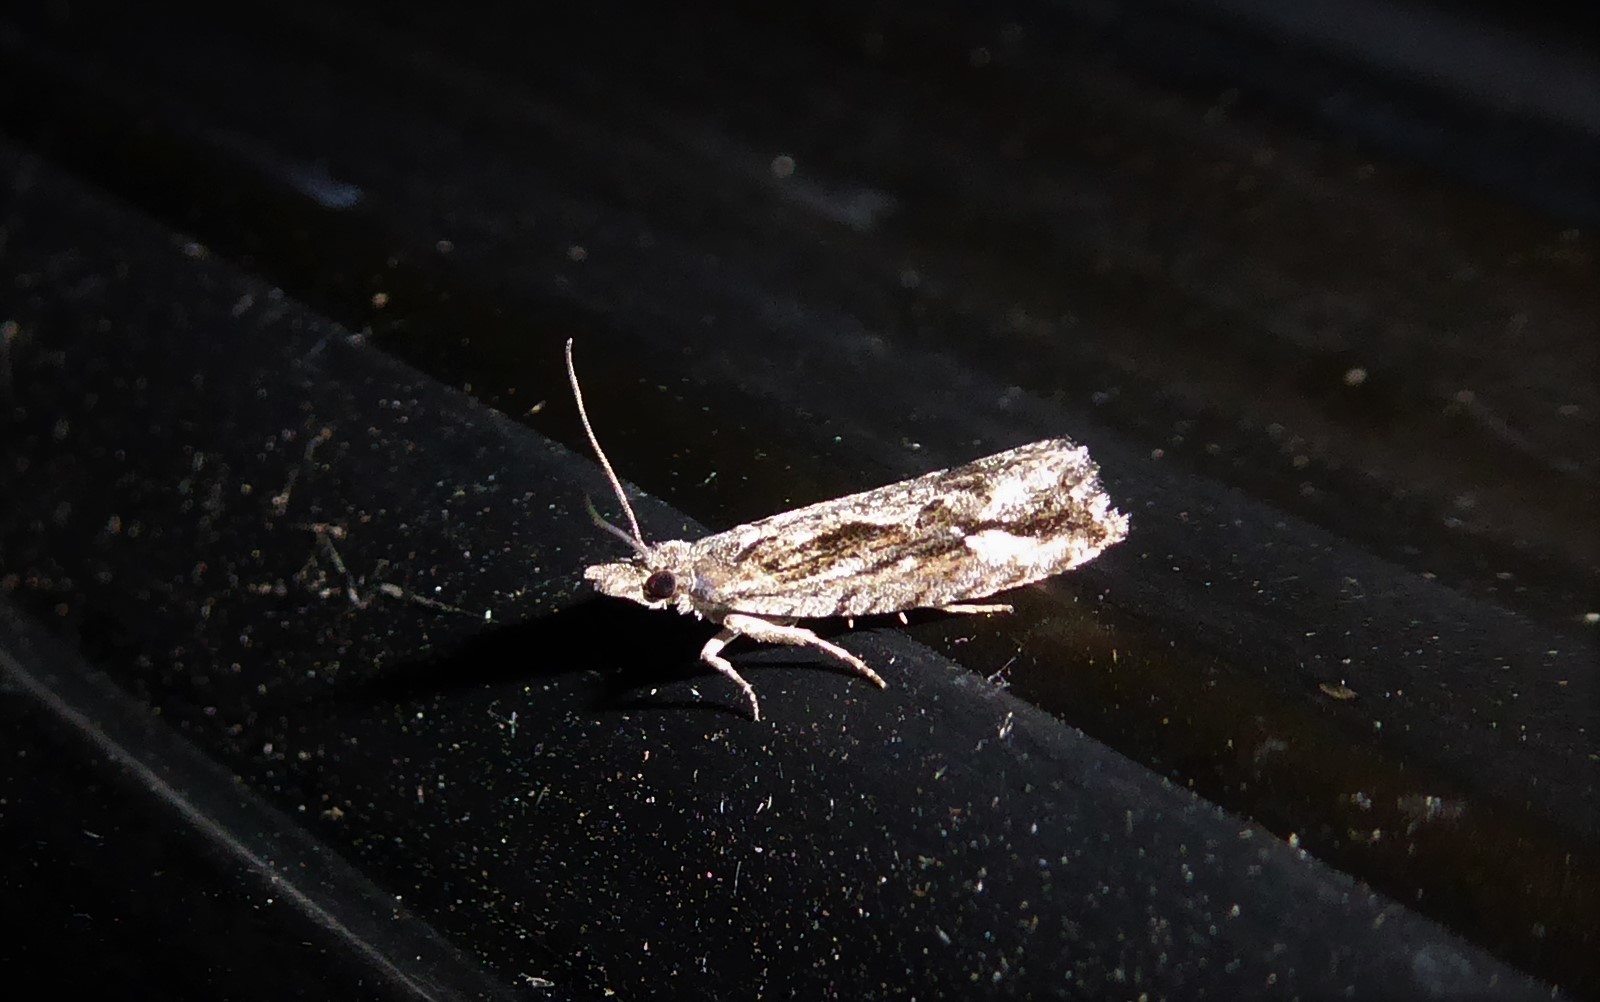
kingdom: Animalia
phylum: Arthropoda
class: Insecta
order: Lepidoptera
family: Tortricidae
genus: Strepsicrates
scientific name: Strepsicrates ejectana
